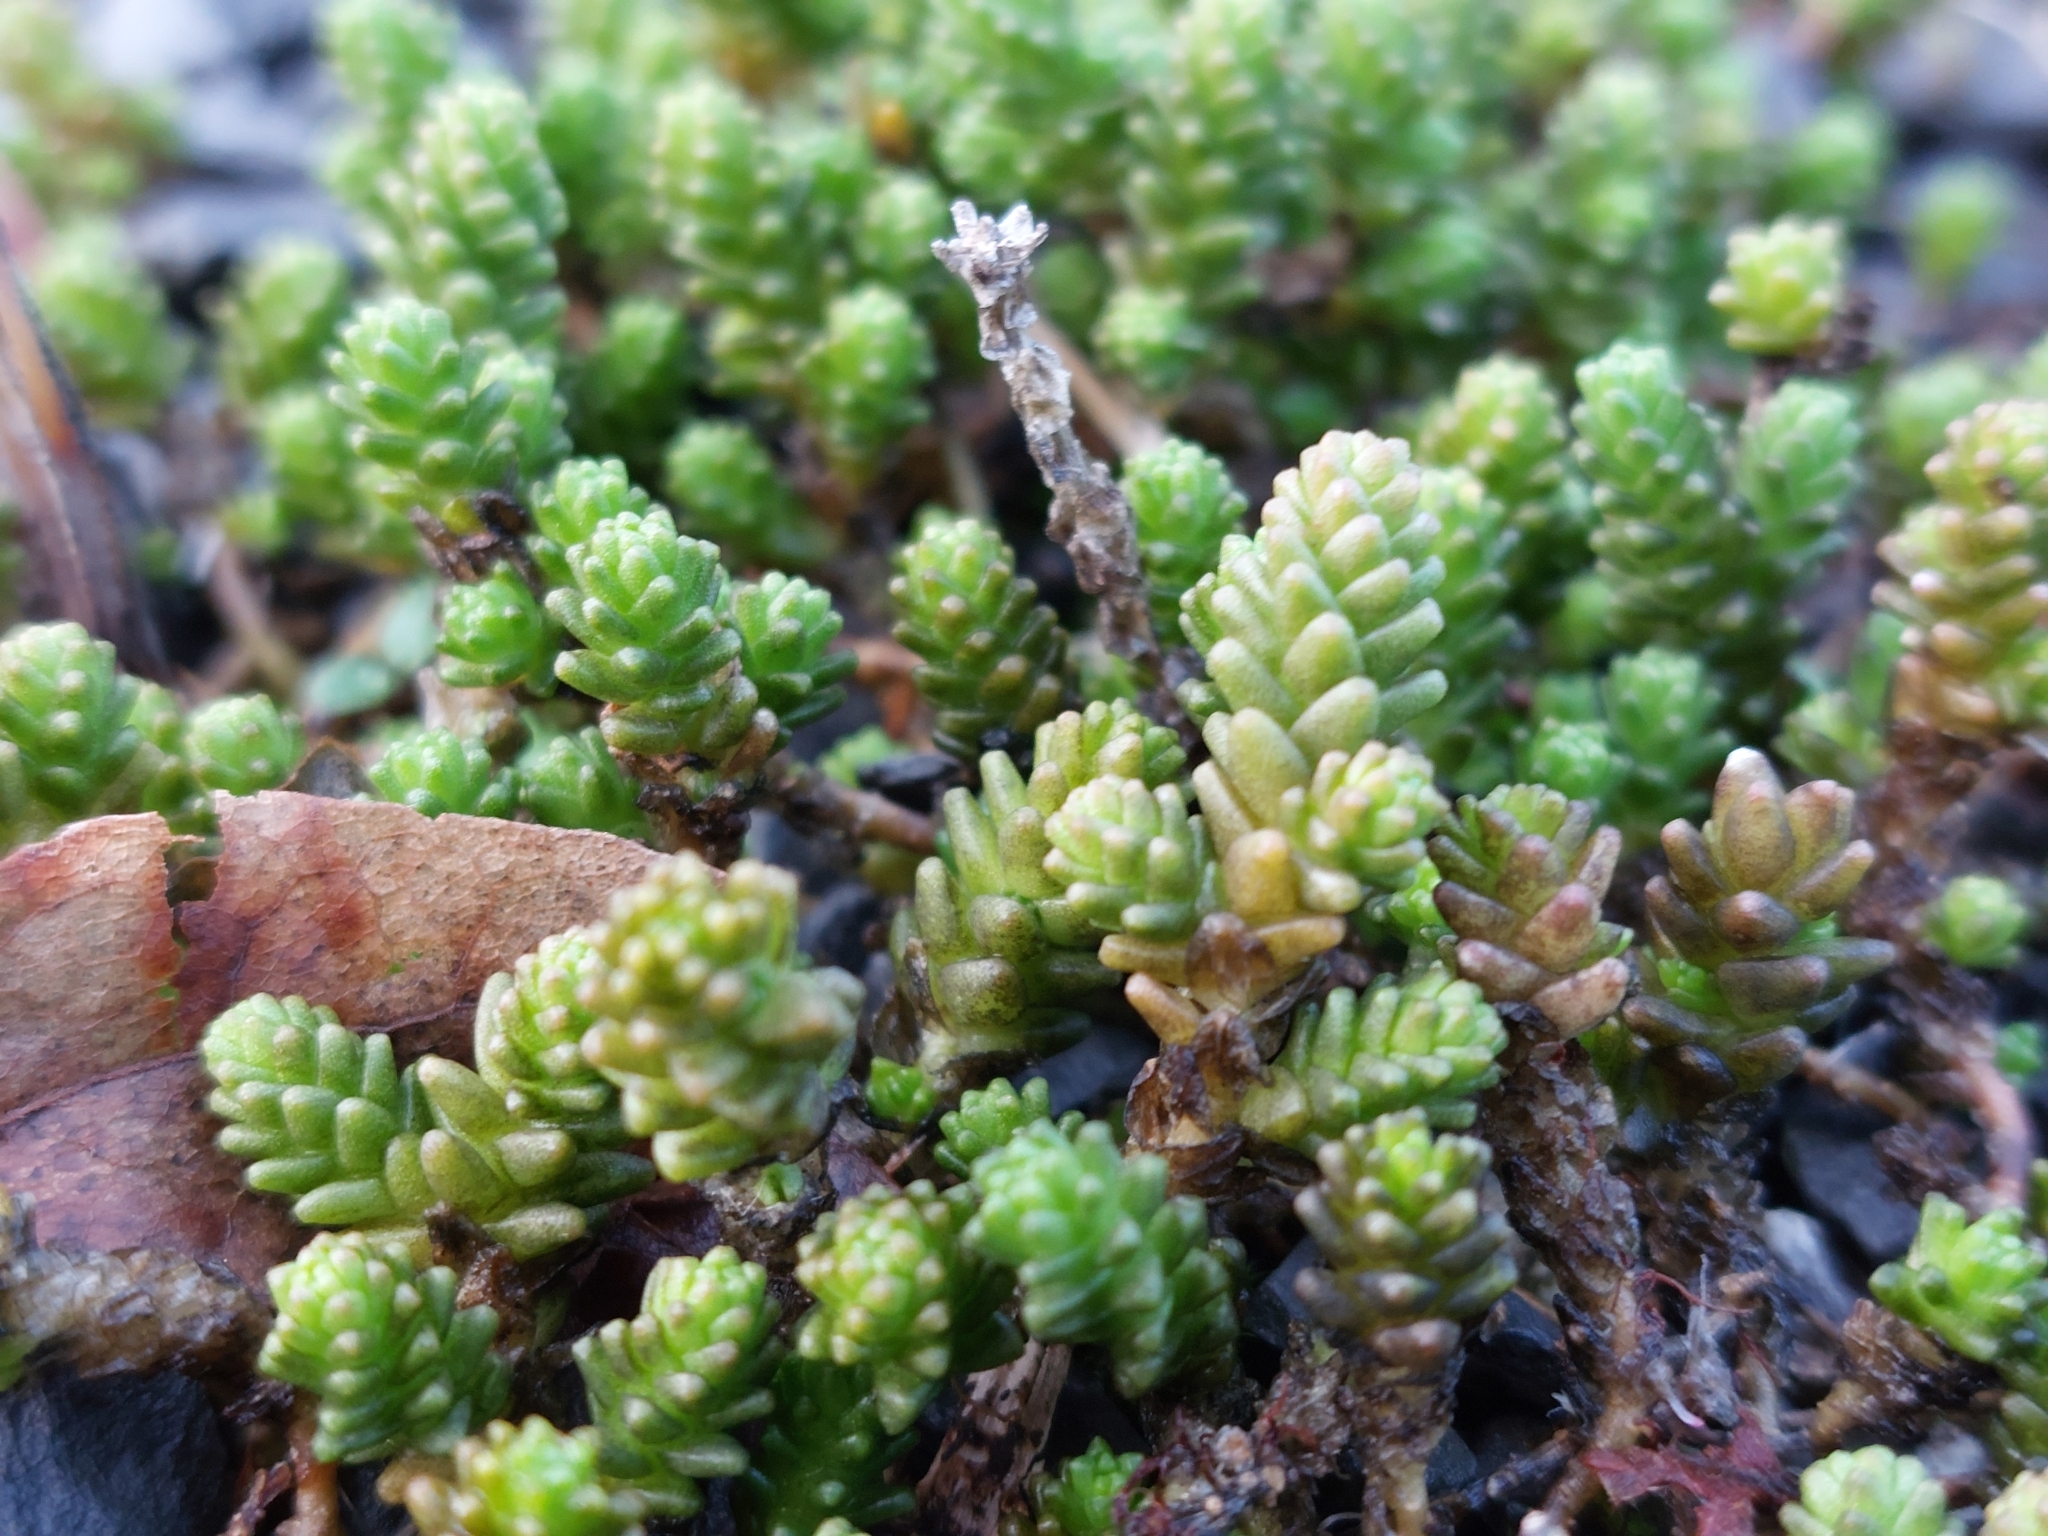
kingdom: Plantae
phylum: Tracheophyta
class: Magnoliopsida
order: Saxifragales
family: Crassulaceae
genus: Sedum
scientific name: Sedum acre
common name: Biting stonecrop
